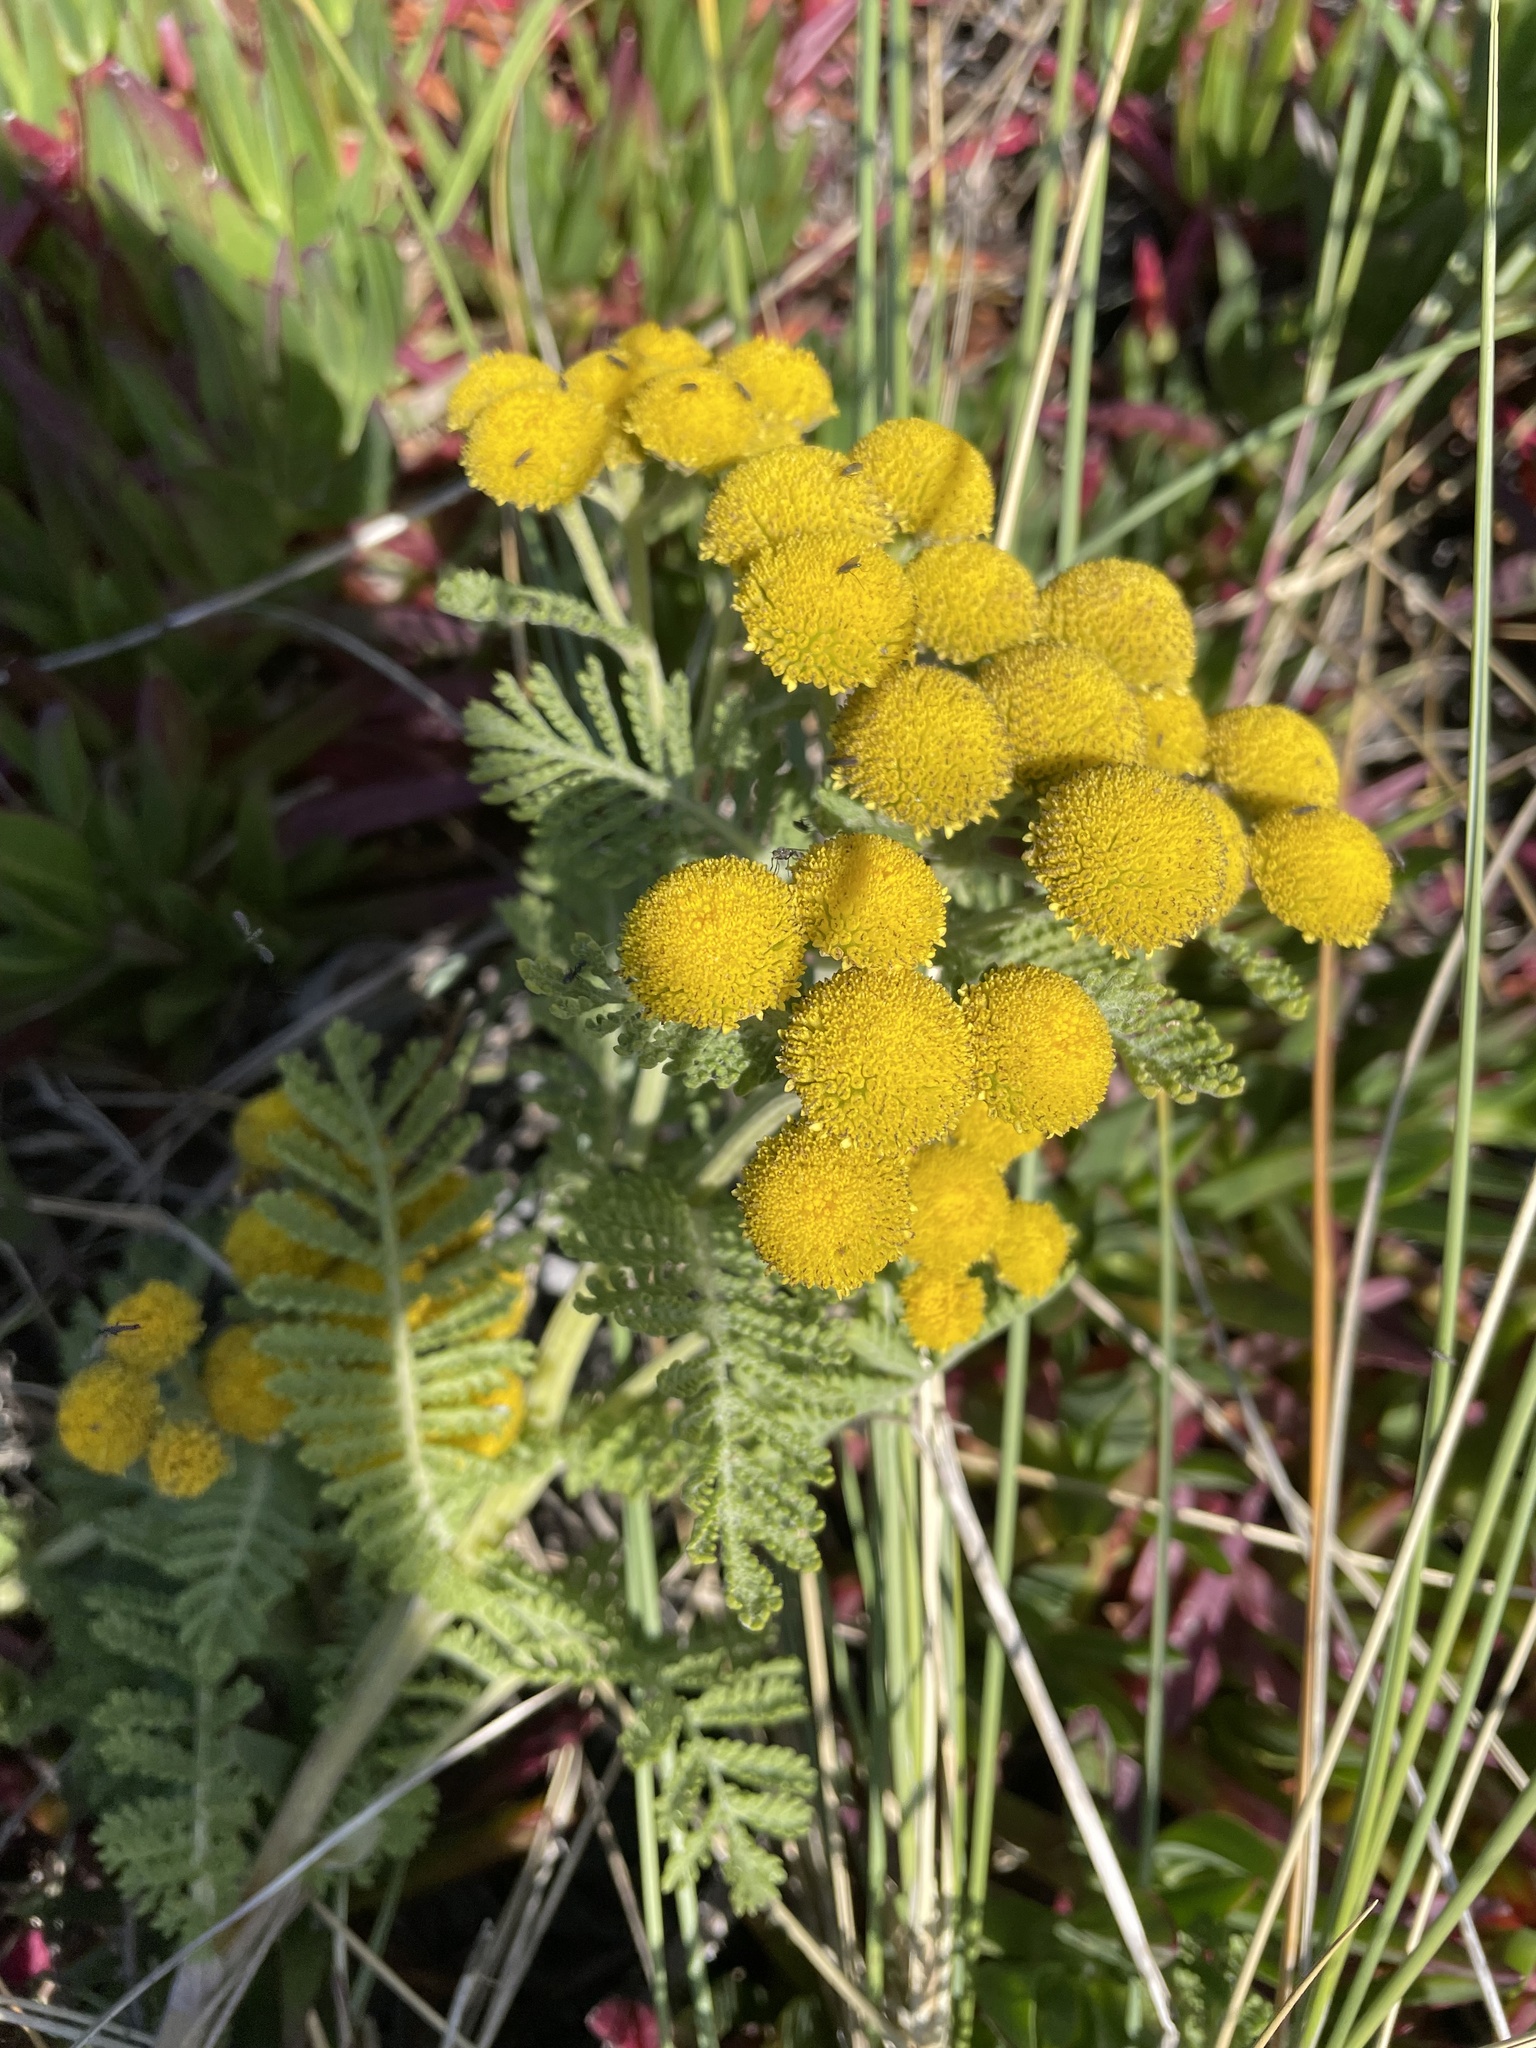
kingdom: Plantae
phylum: Tracheophyta
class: Magnoliopsida
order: Asterales
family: Asteraceae
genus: Tanacetum
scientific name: Tanacetum bipinnatum
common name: Dwarf tansy
